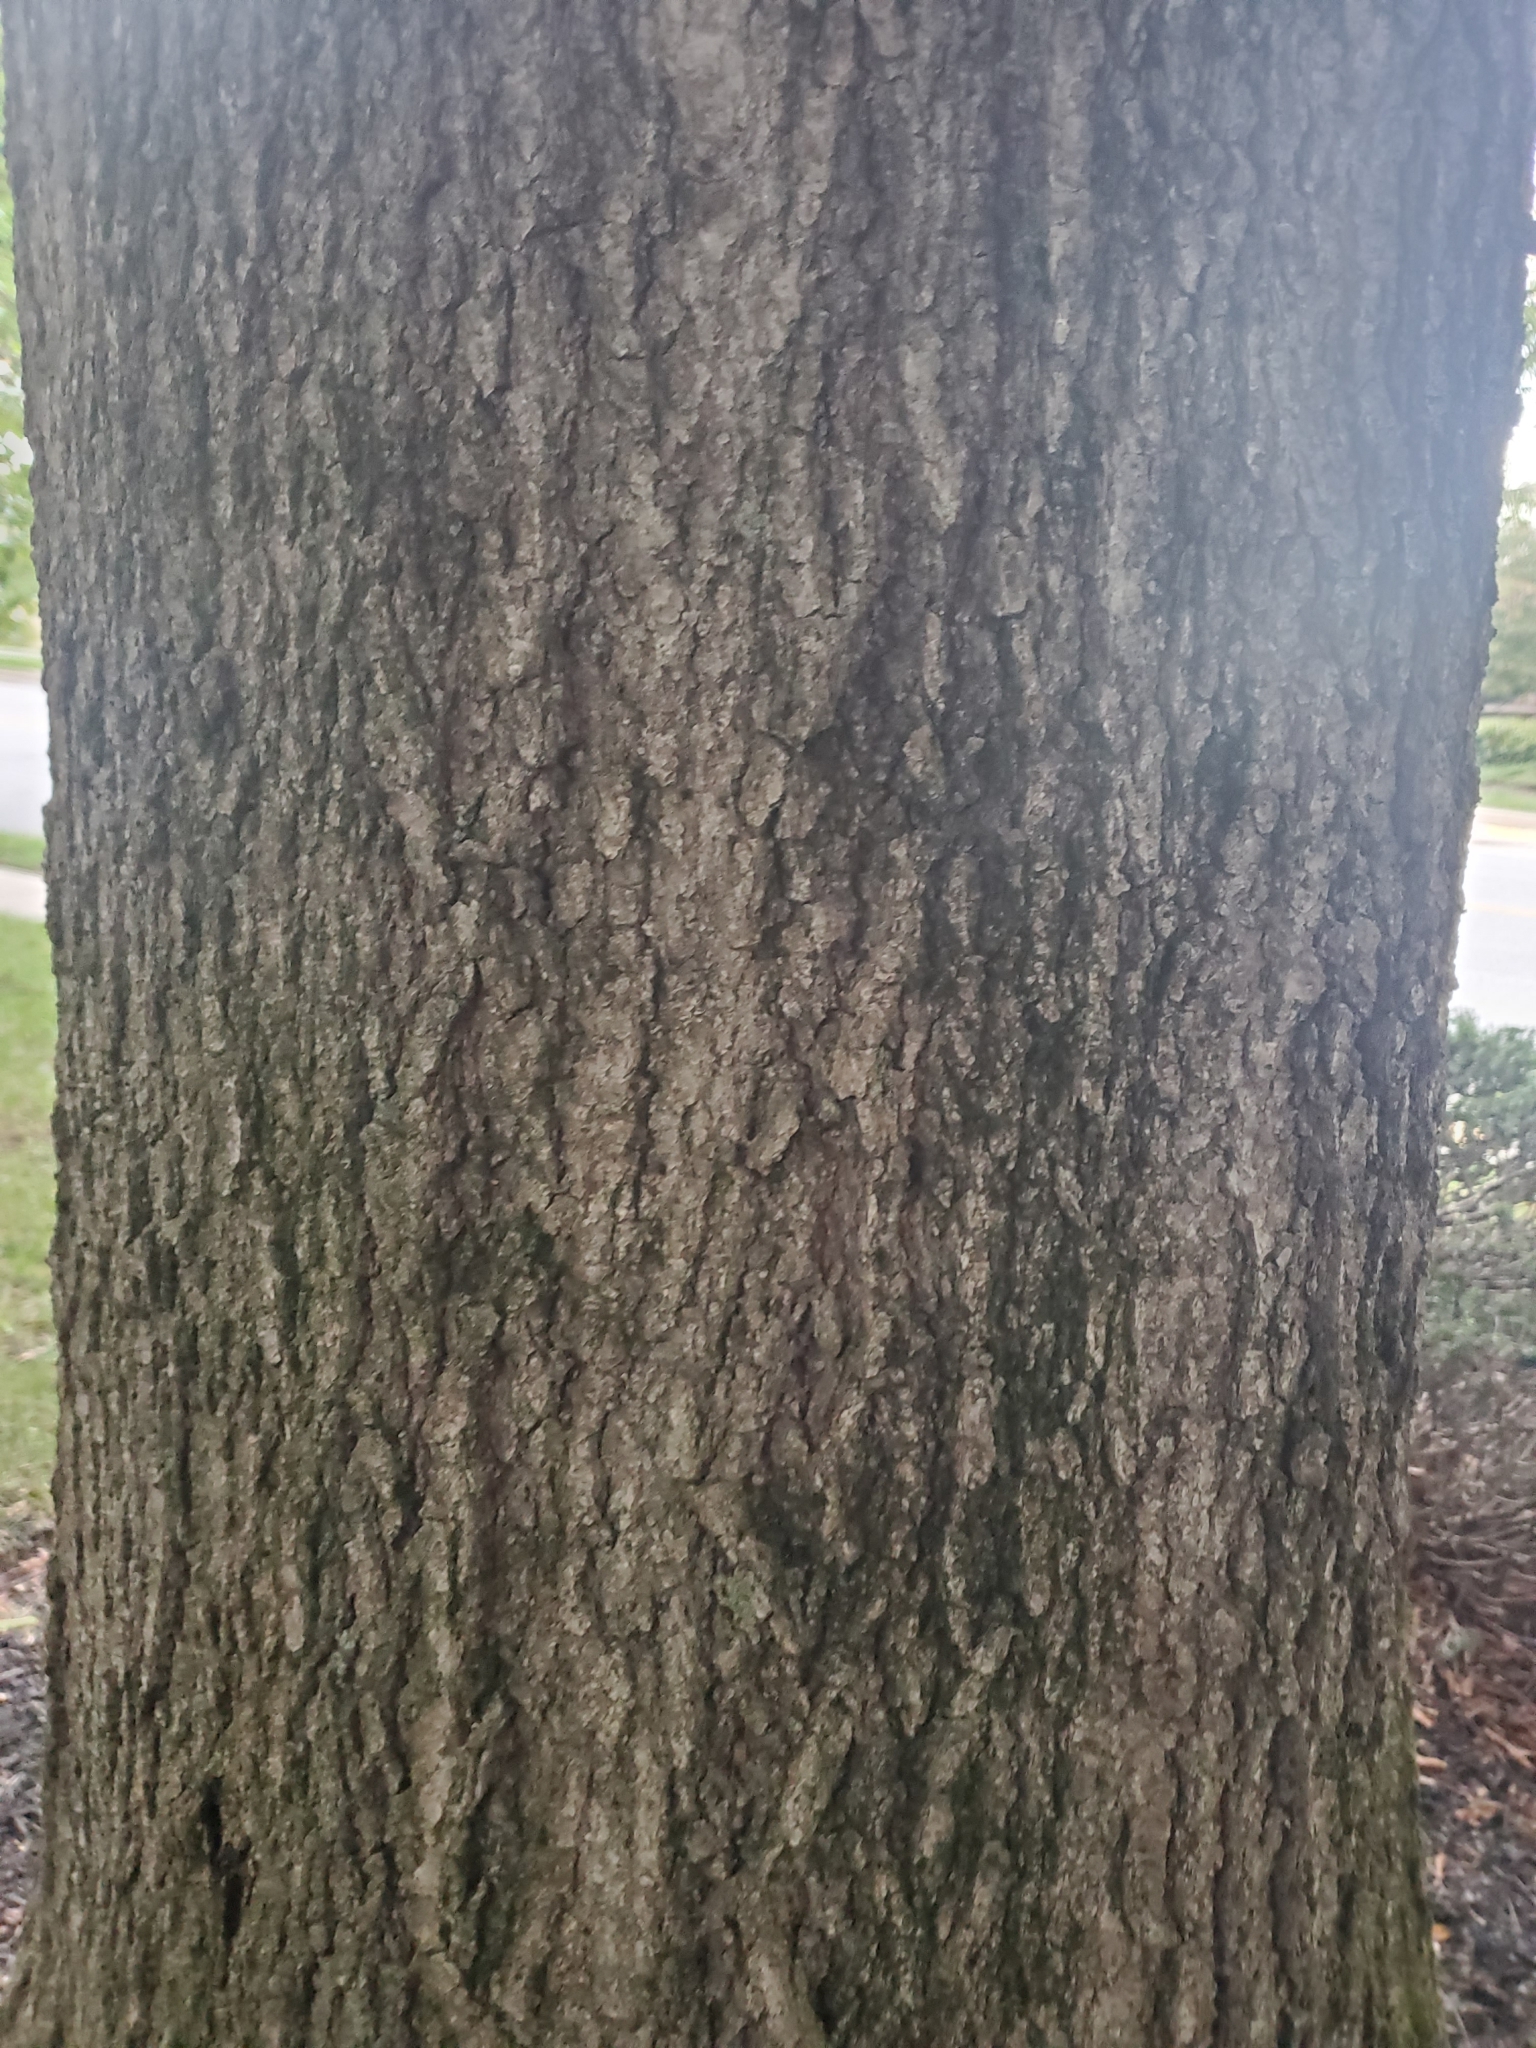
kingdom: Plantae
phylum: Tracheophyta
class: Magnoliopsida
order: Fagales
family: Fagaceae
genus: Quercus
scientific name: Quercus phellos
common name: Willow oak
